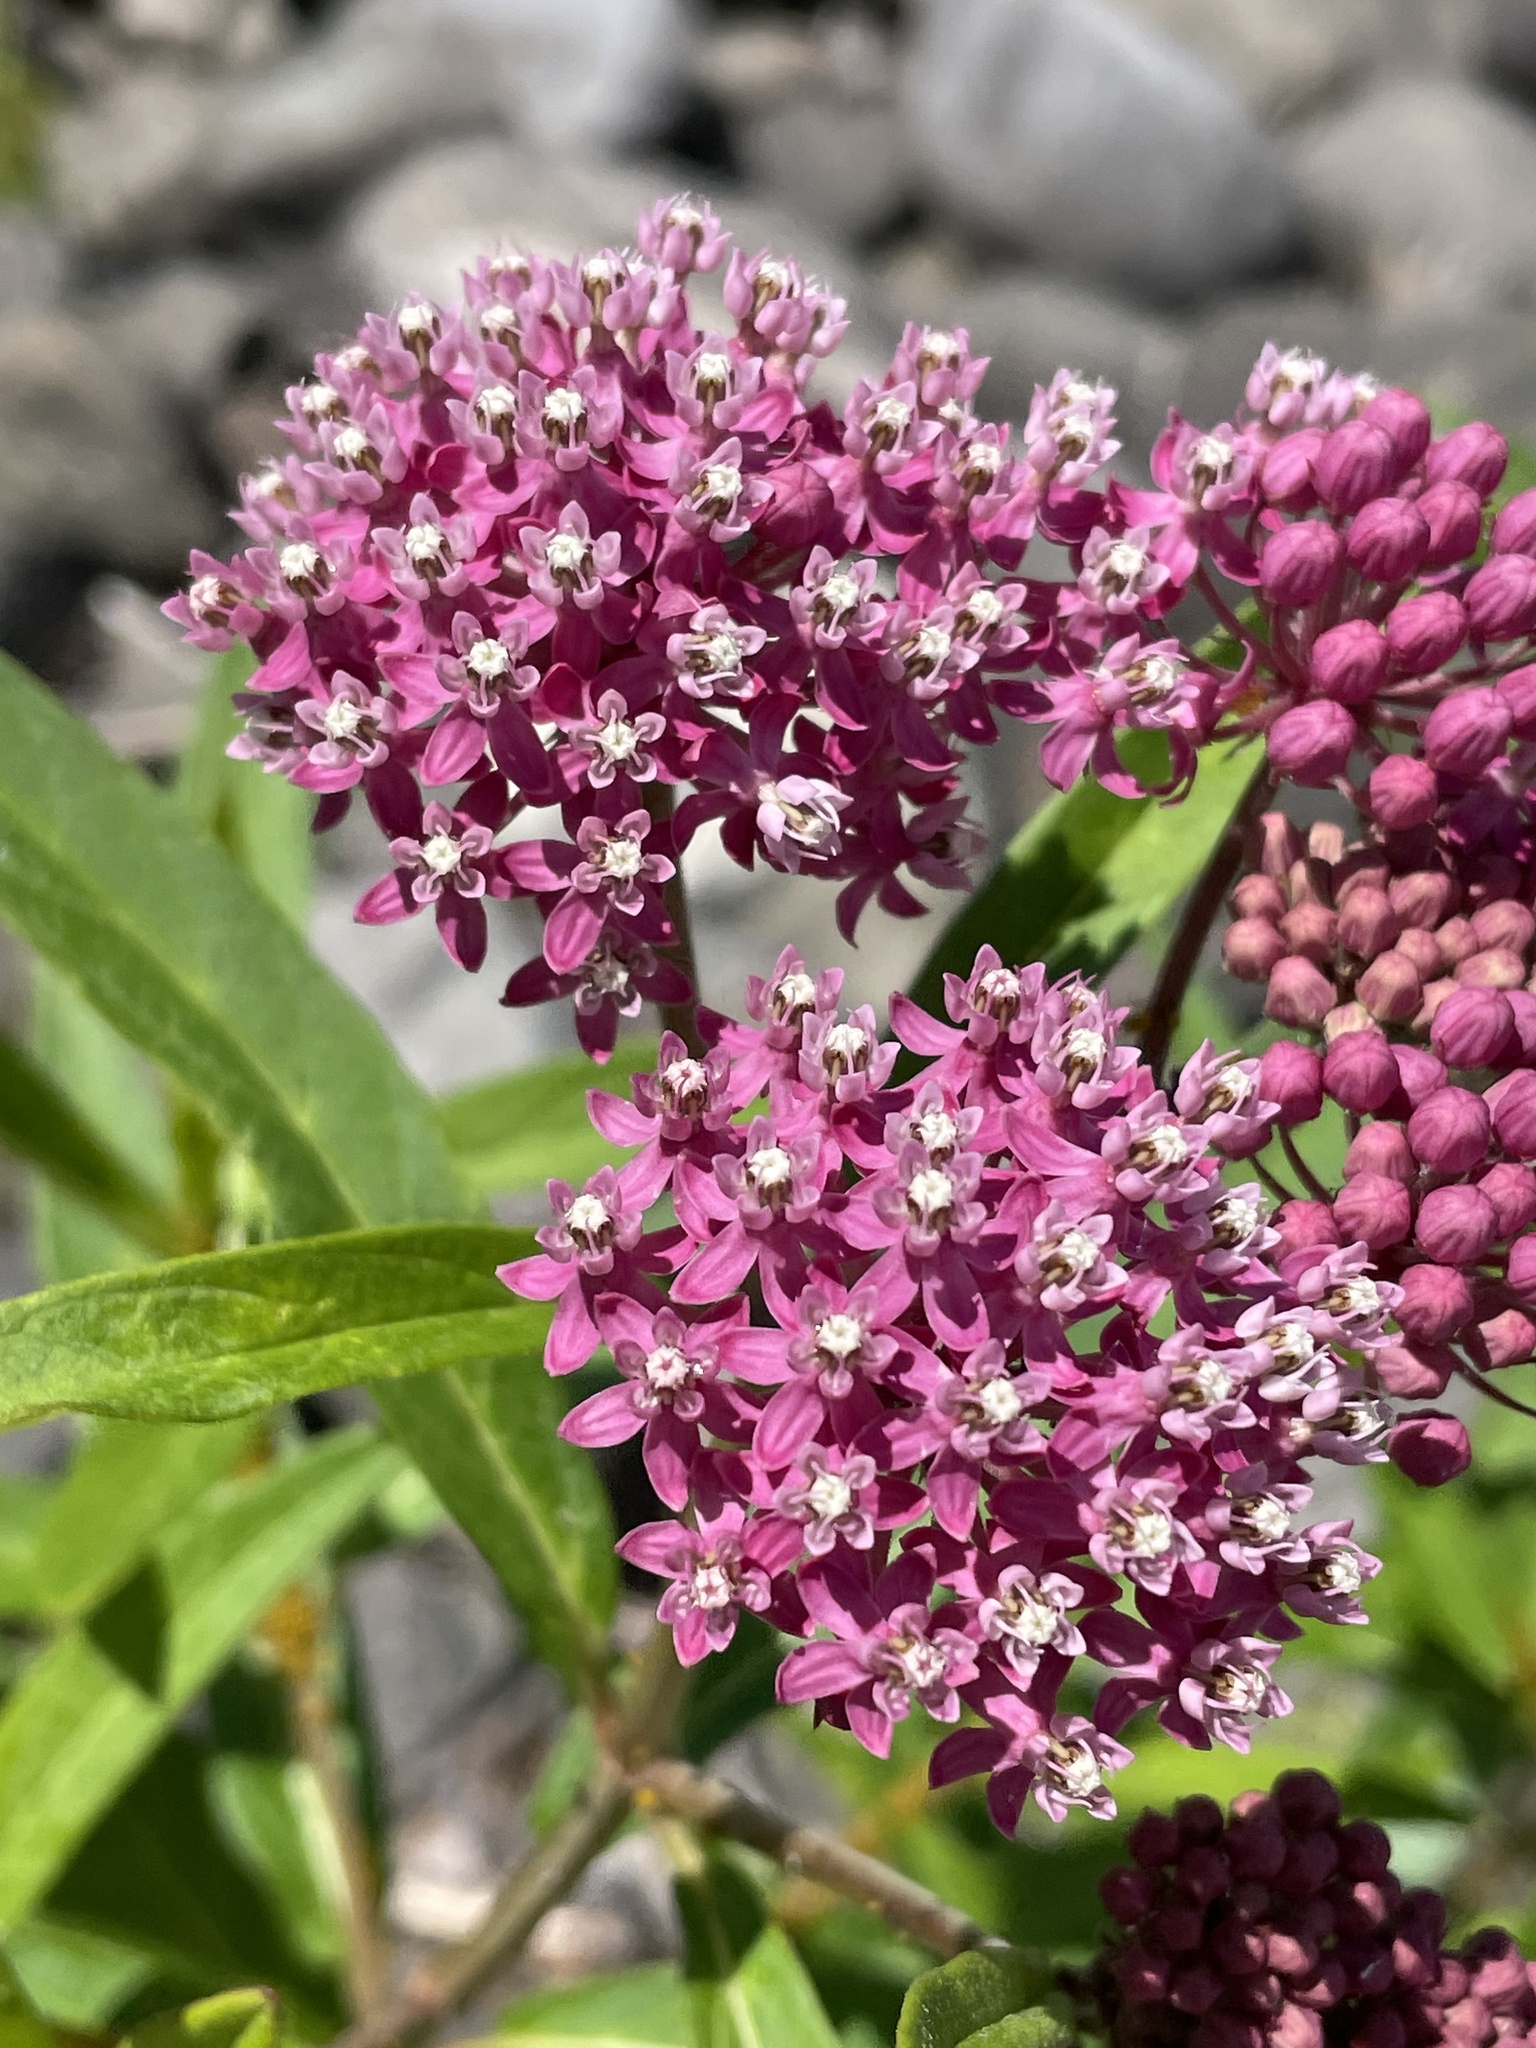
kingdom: Plantae
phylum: Tracheophyta
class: Magnoliopsida
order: Gentianales
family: Apocynaceae
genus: Asclepias
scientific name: Asclepias incarnata
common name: Swamp milkweed
